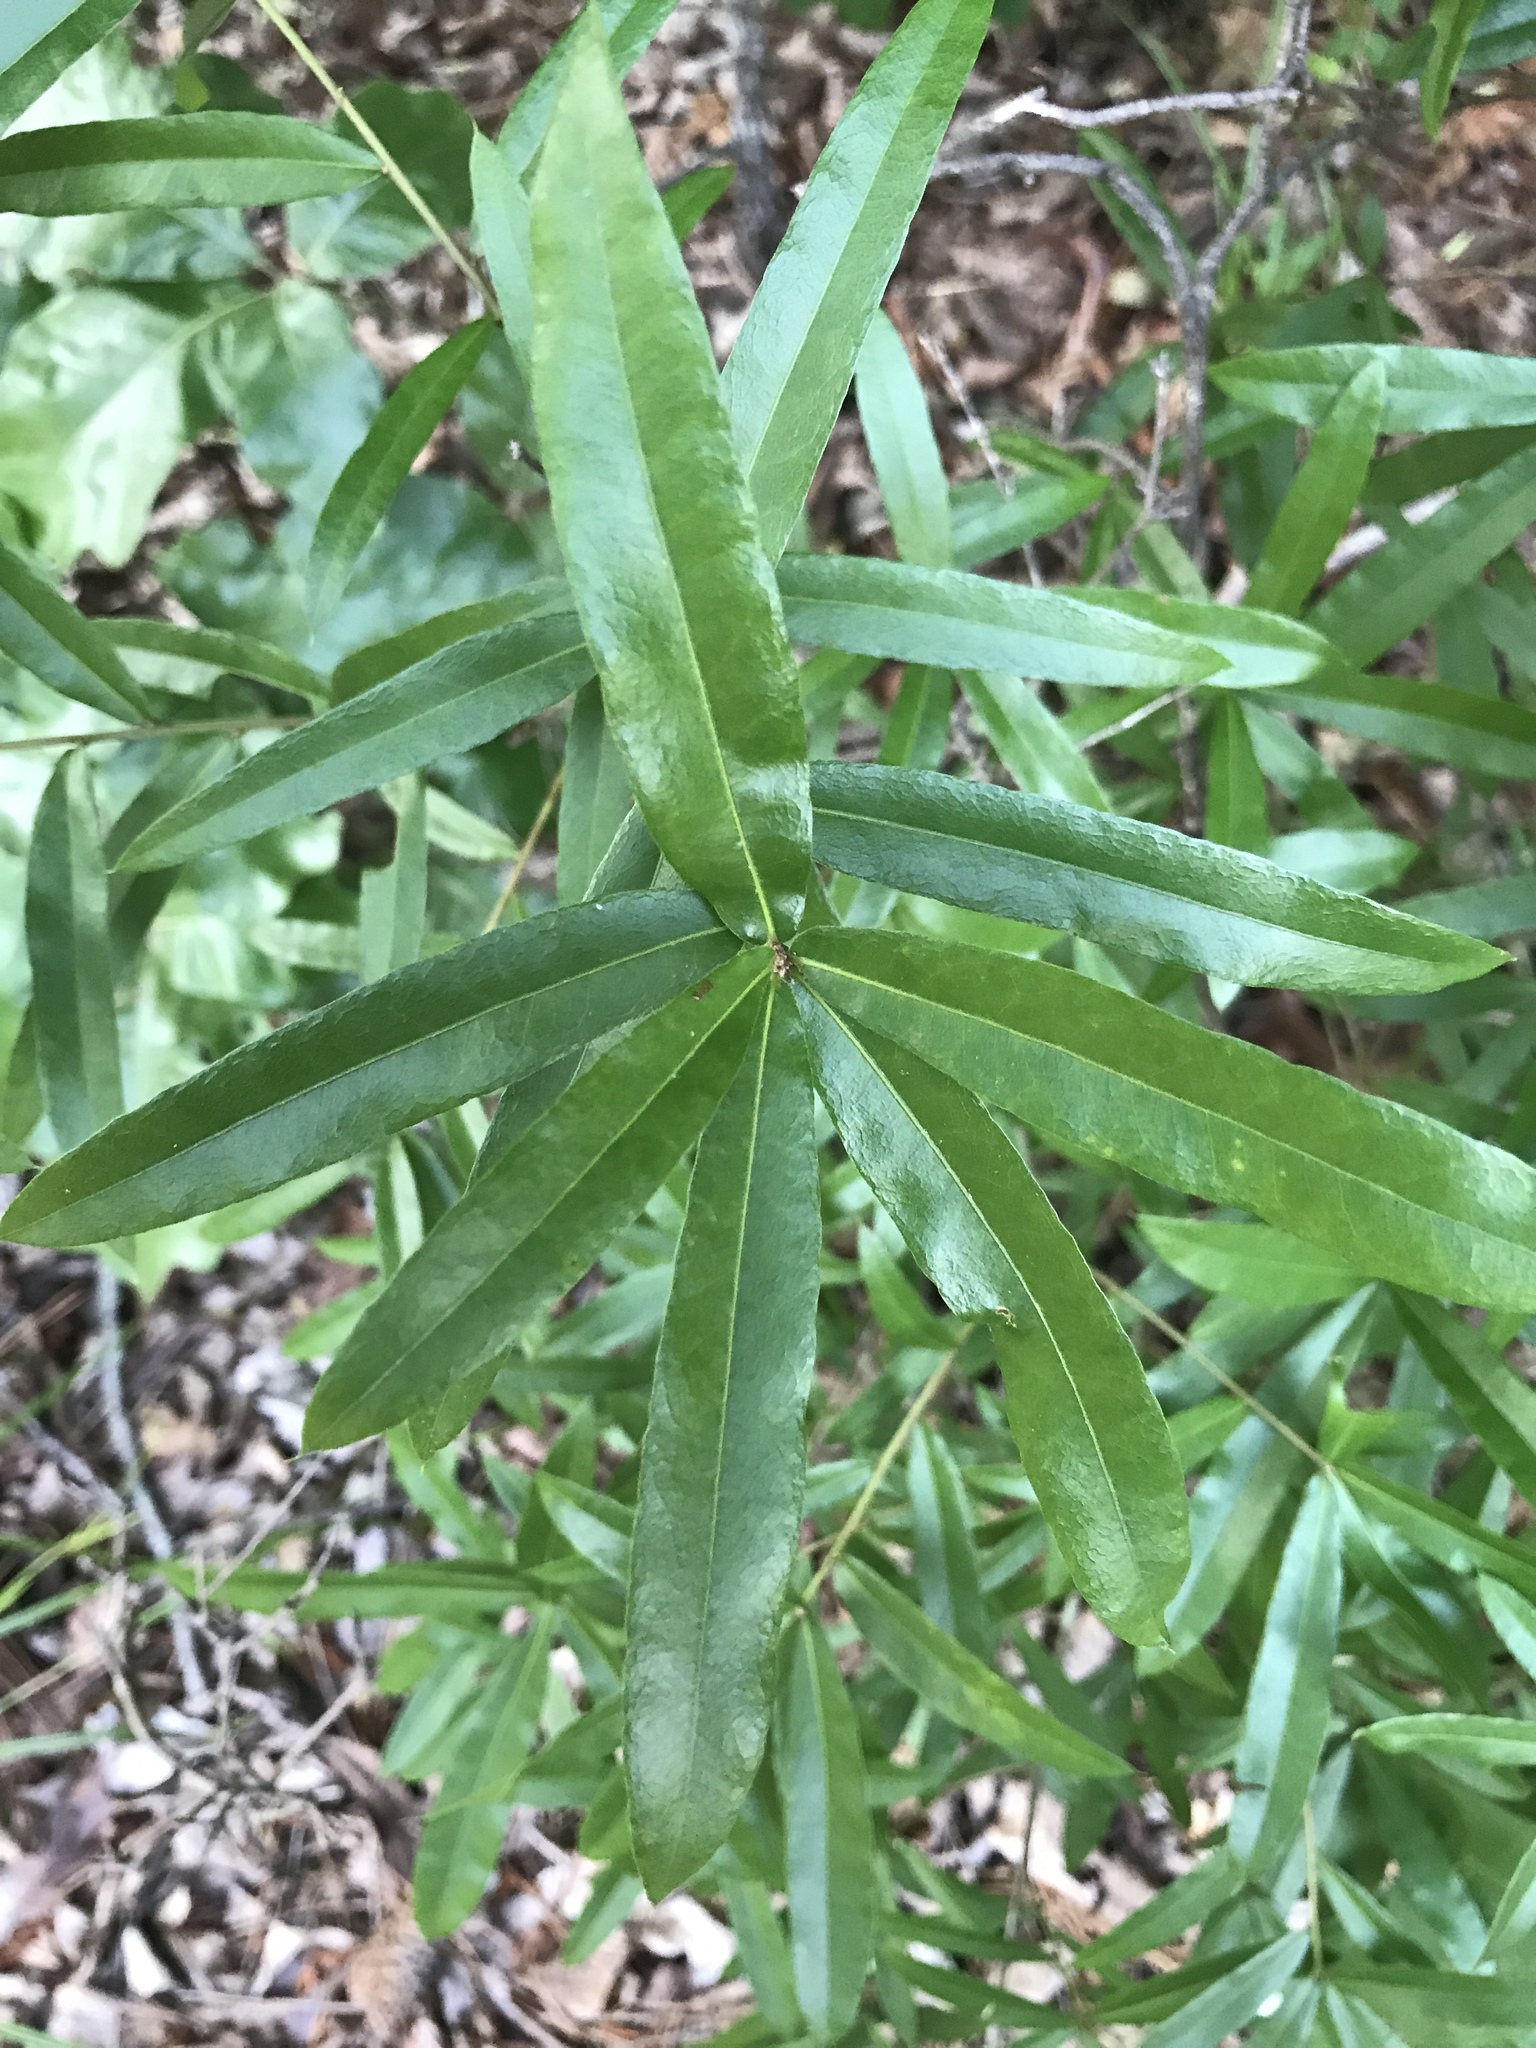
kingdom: Plantae
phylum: Tracheophyta
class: Magnoliopsida
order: Fagales
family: Fagaceae
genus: Quercus
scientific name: Quercus phellos
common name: Willow oak
